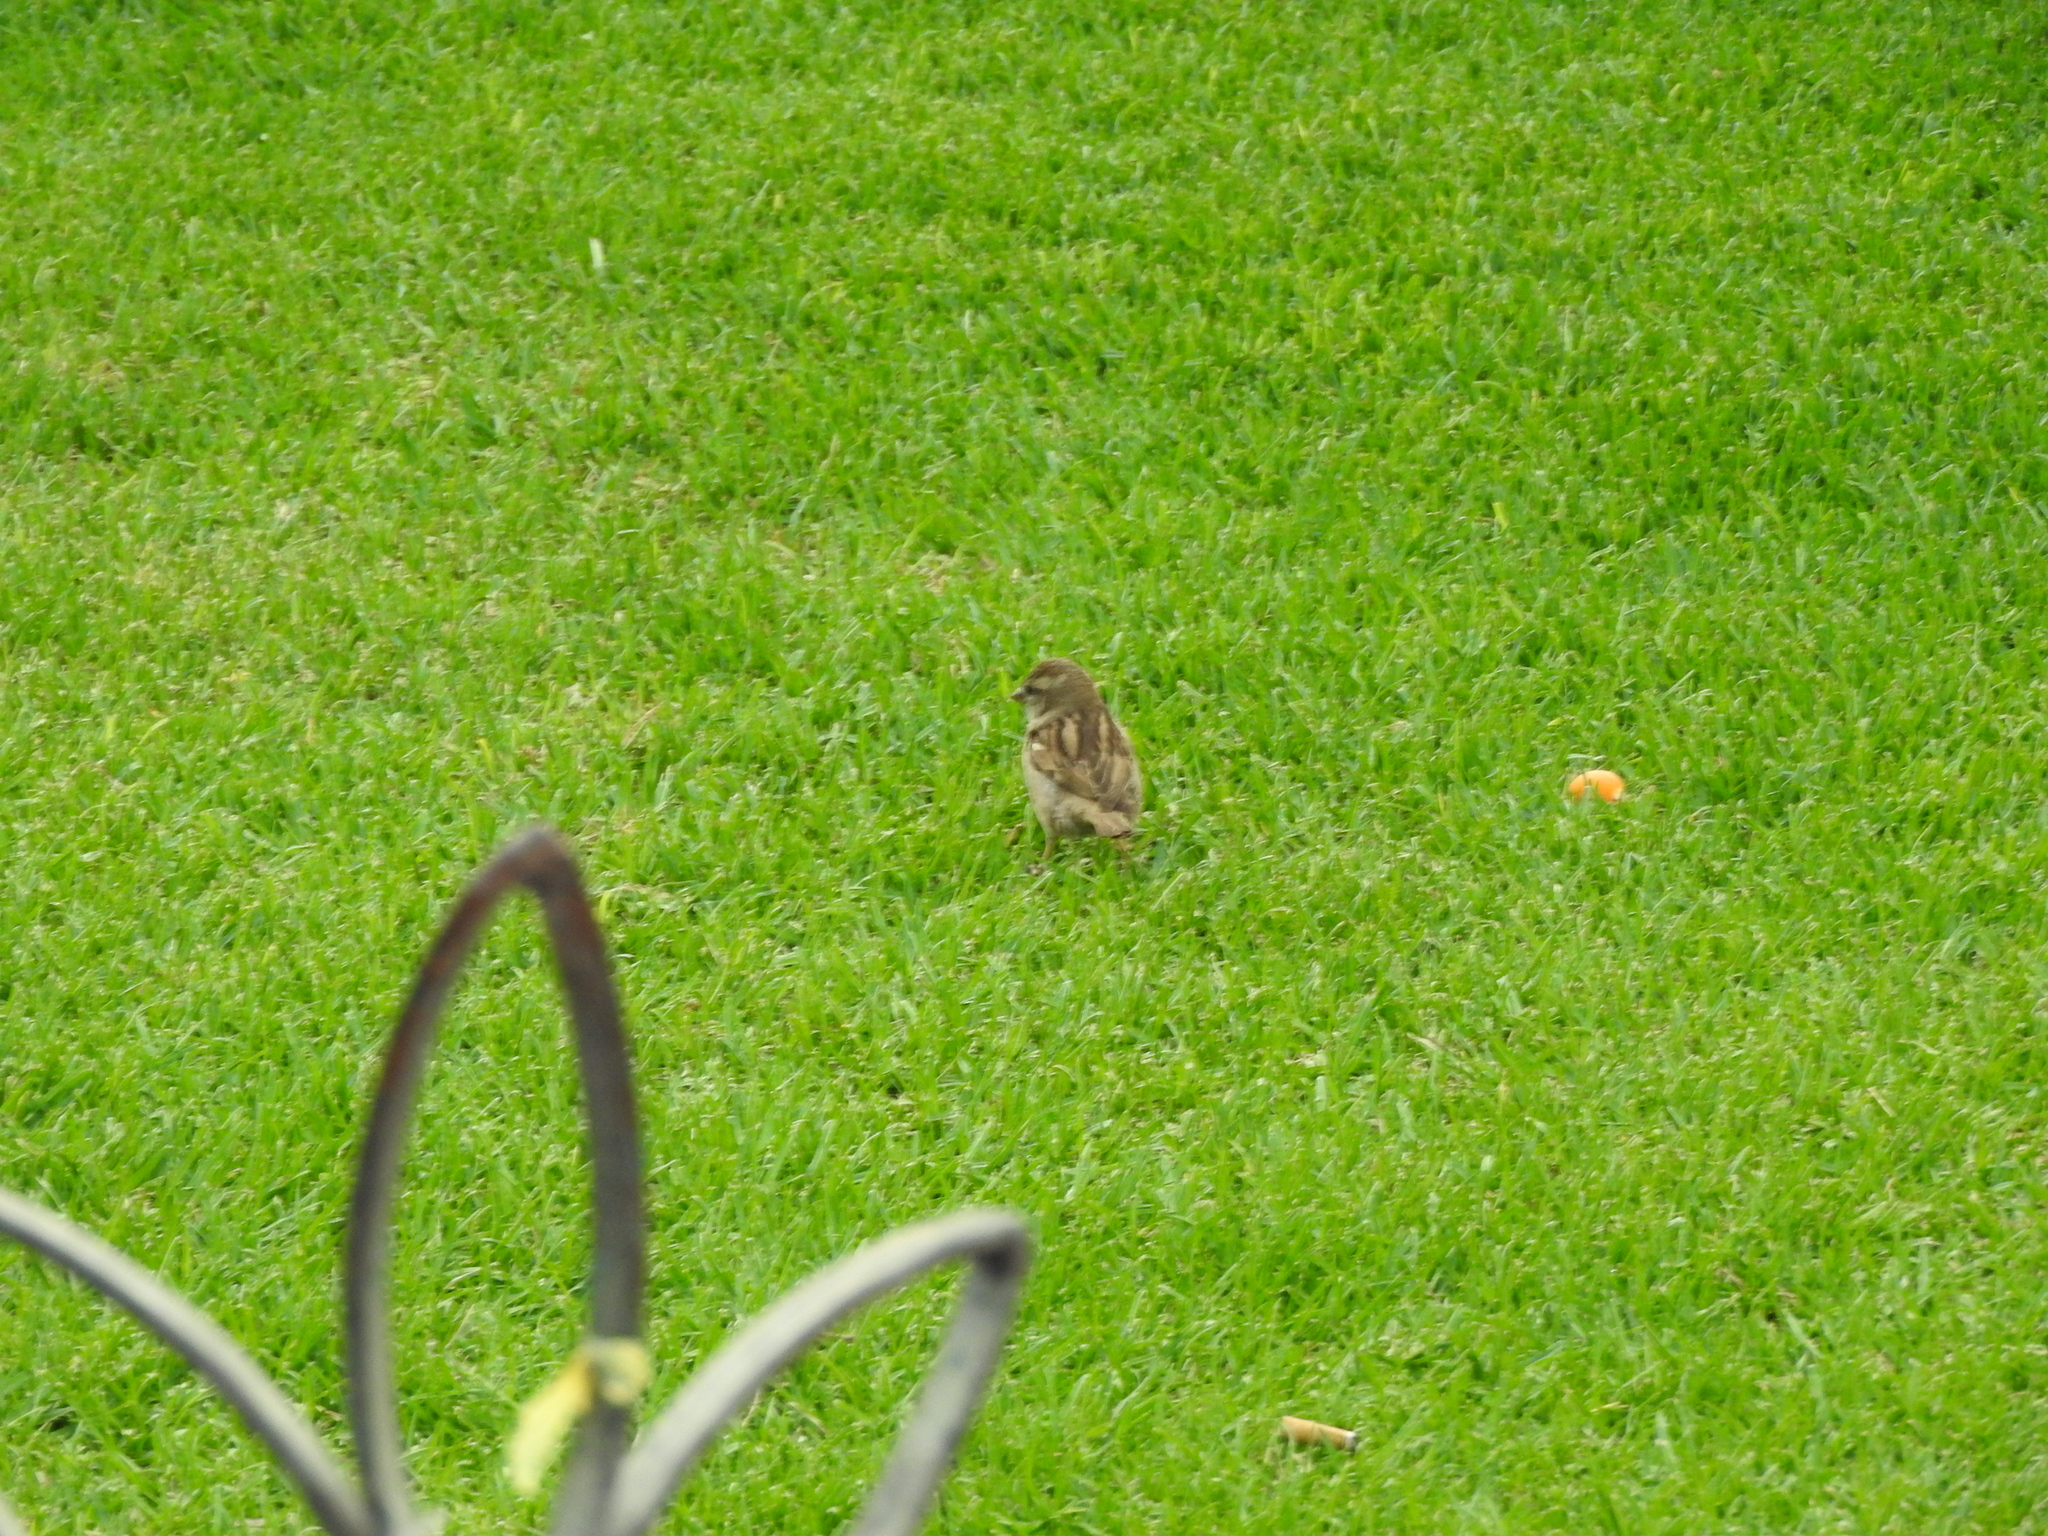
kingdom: Animalia
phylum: Chordata
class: Aves
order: Passeriformes
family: Passeridae
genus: Passer
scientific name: Passer domesticus
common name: House sparrow
